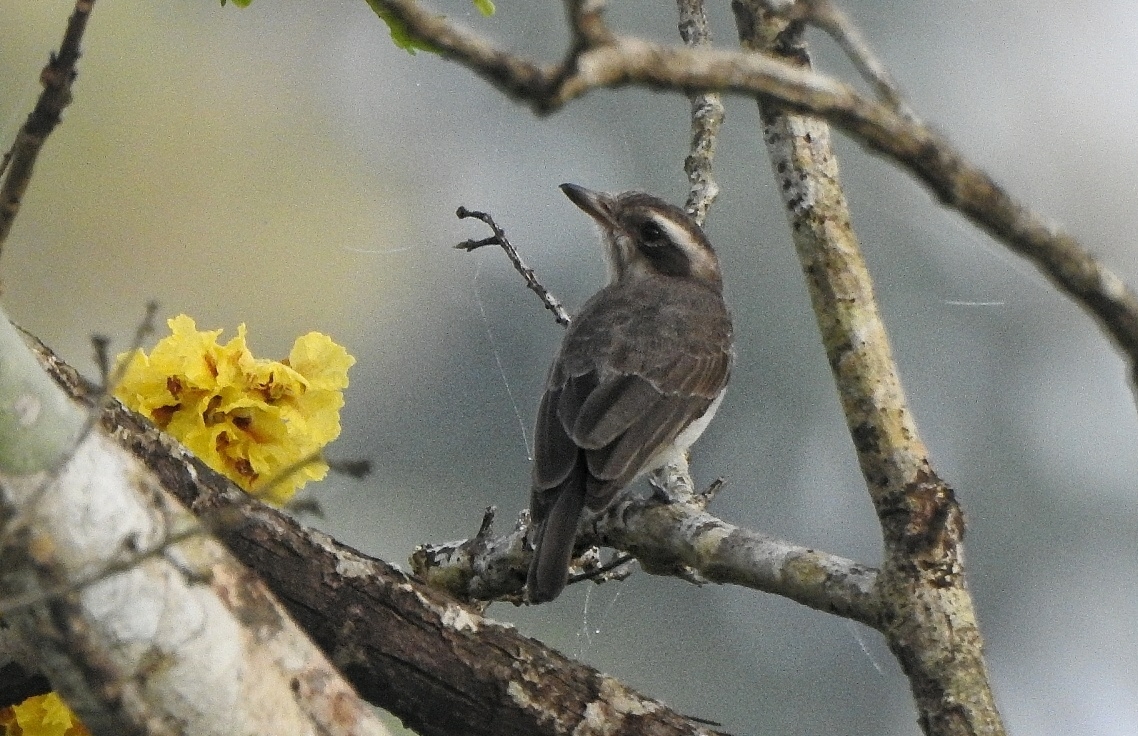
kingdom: Animalia
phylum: Chordata
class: Aves
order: Passeriformes
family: Tephrodornithidae
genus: Tephrodornis
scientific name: Tephrodornis pondicerianus
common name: Common woodshrike
